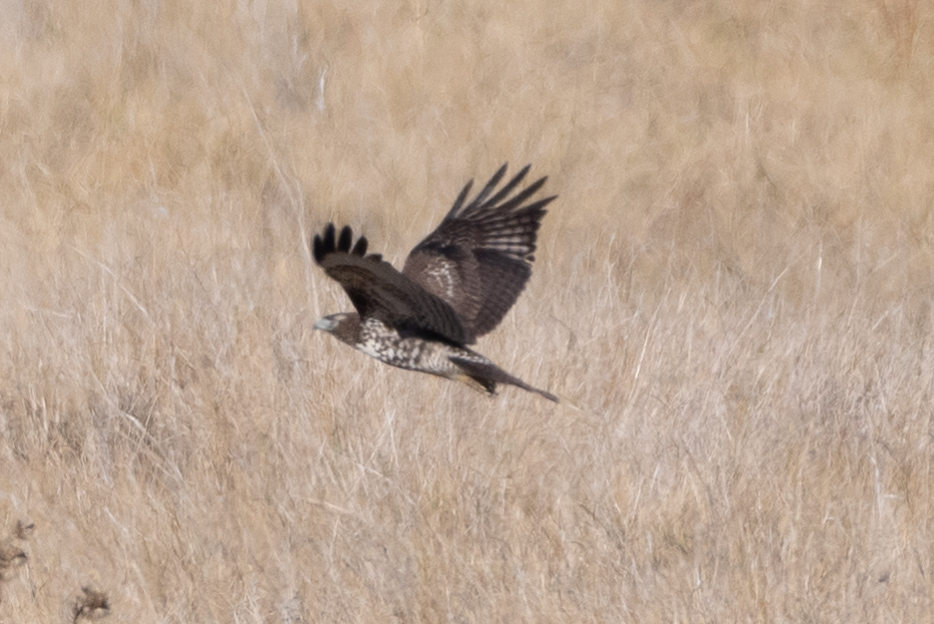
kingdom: Animalia
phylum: Chordata
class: Aves
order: Accipitriformes
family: Accipitridae
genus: Buteo
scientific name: Buteo jamaicensis
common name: Red-tailed hawk
